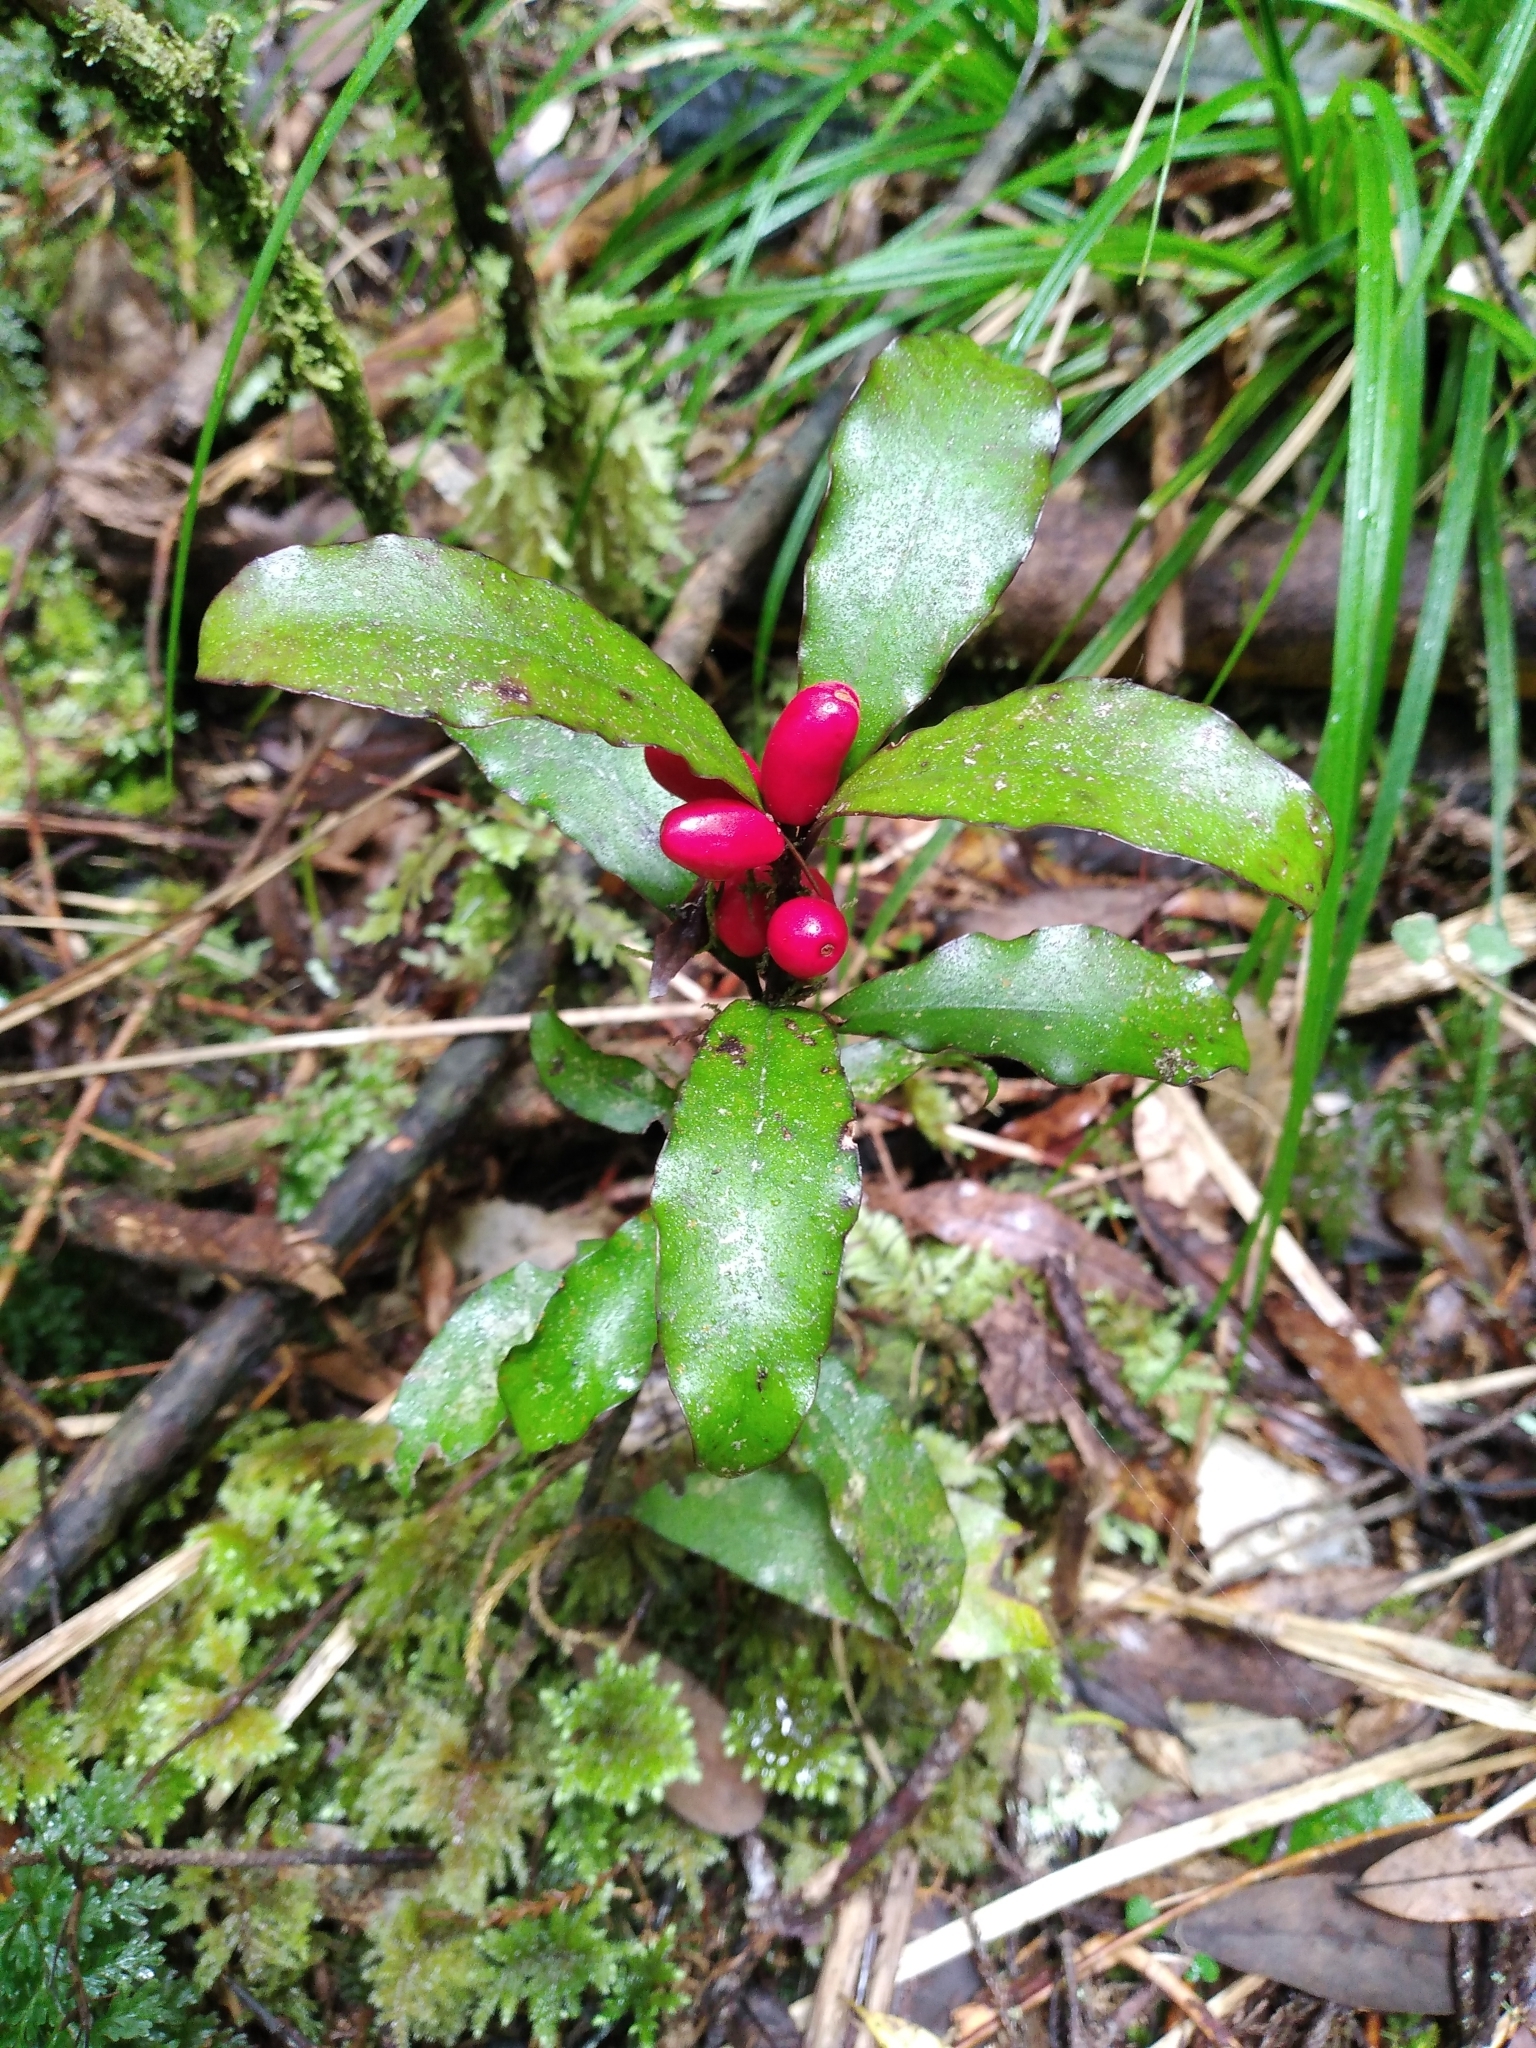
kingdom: Plantae
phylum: Tracheophyta
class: Magnoliopsida
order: Asterales
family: Alseuosmiaceae
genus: Alseuosmia
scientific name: Alseuosmia pusilla
